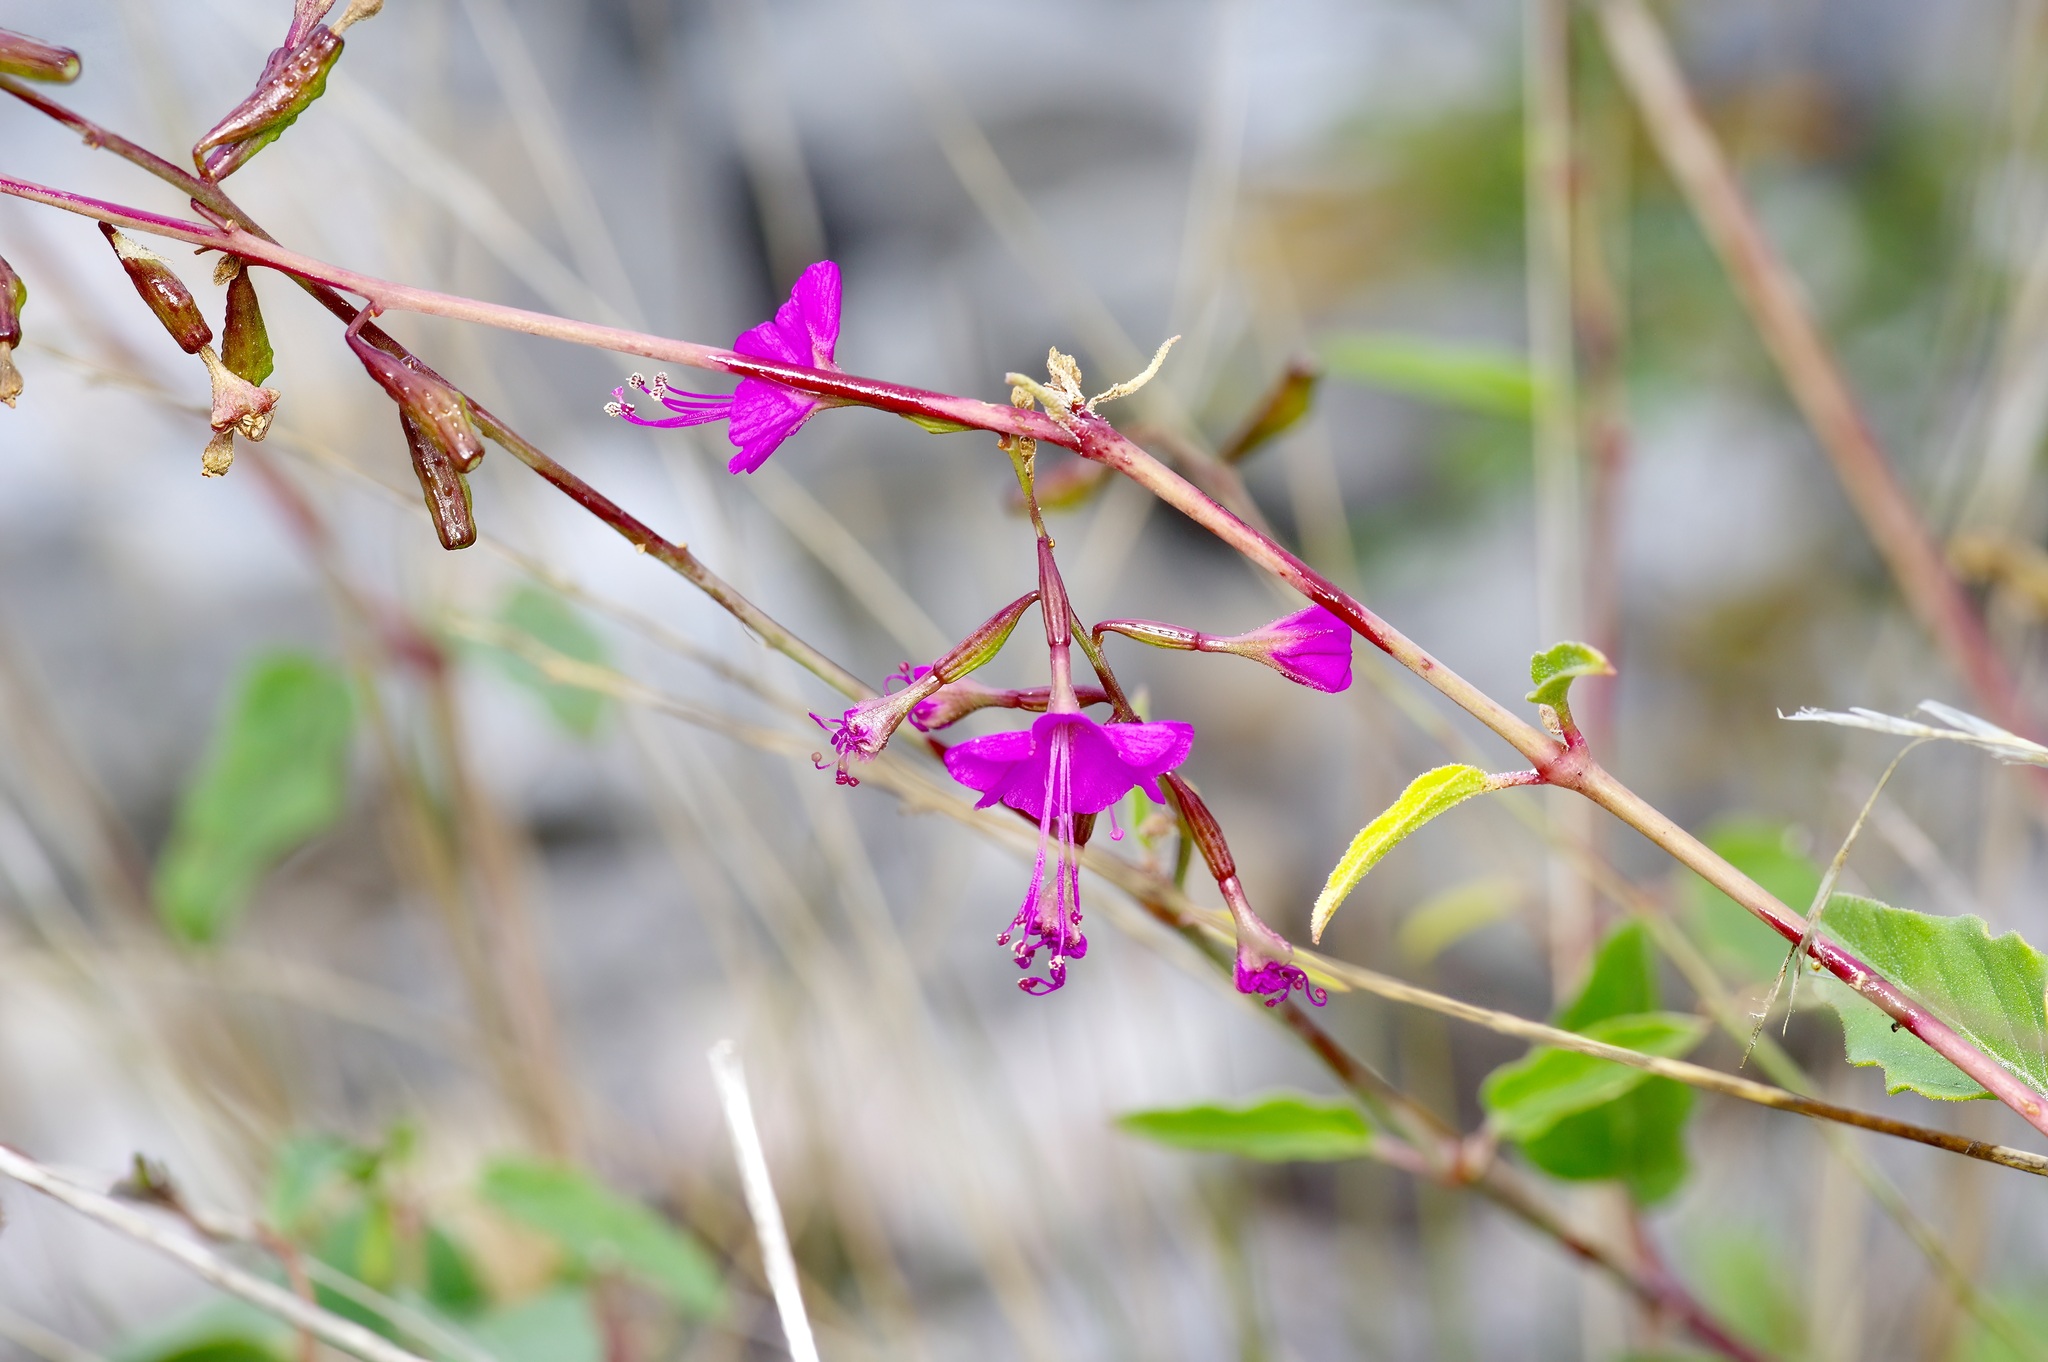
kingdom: Plantae
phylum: Tracheophyta
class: Magnoliopsida
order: Caryophyllales
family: Nyctaginaceae
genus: Cyphomeris
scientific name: Cyphomeris gypsophiloides
